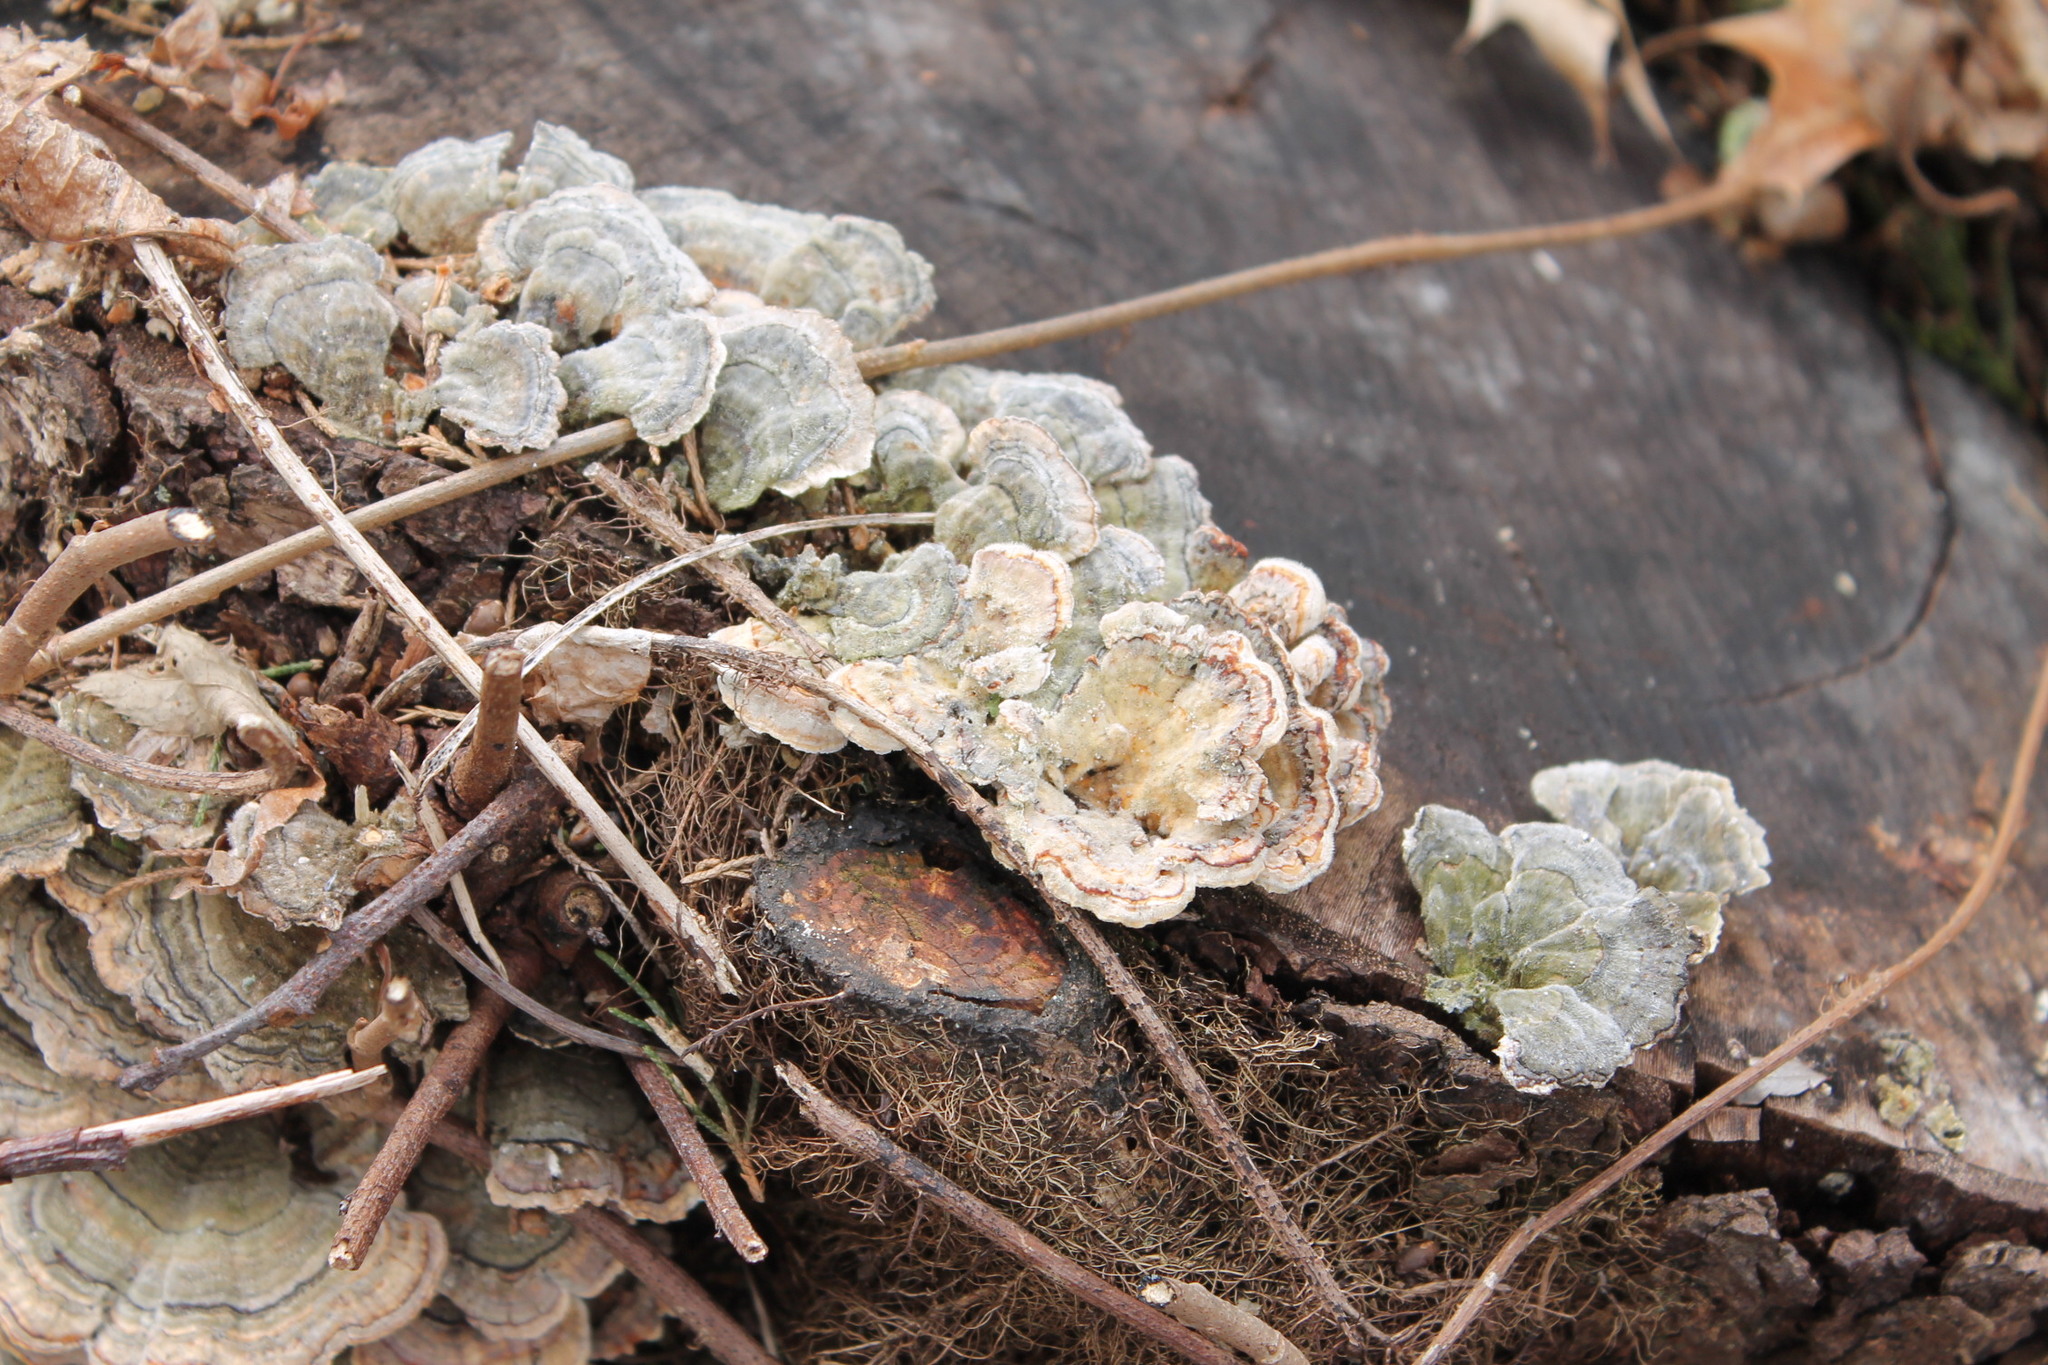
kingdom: Fungi
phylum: Basidiomycota
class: Agaricomycetes
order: Polyporales
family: Polyporaceae
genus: Trametes
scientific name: Trametes versicolor
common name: Turkeytail
